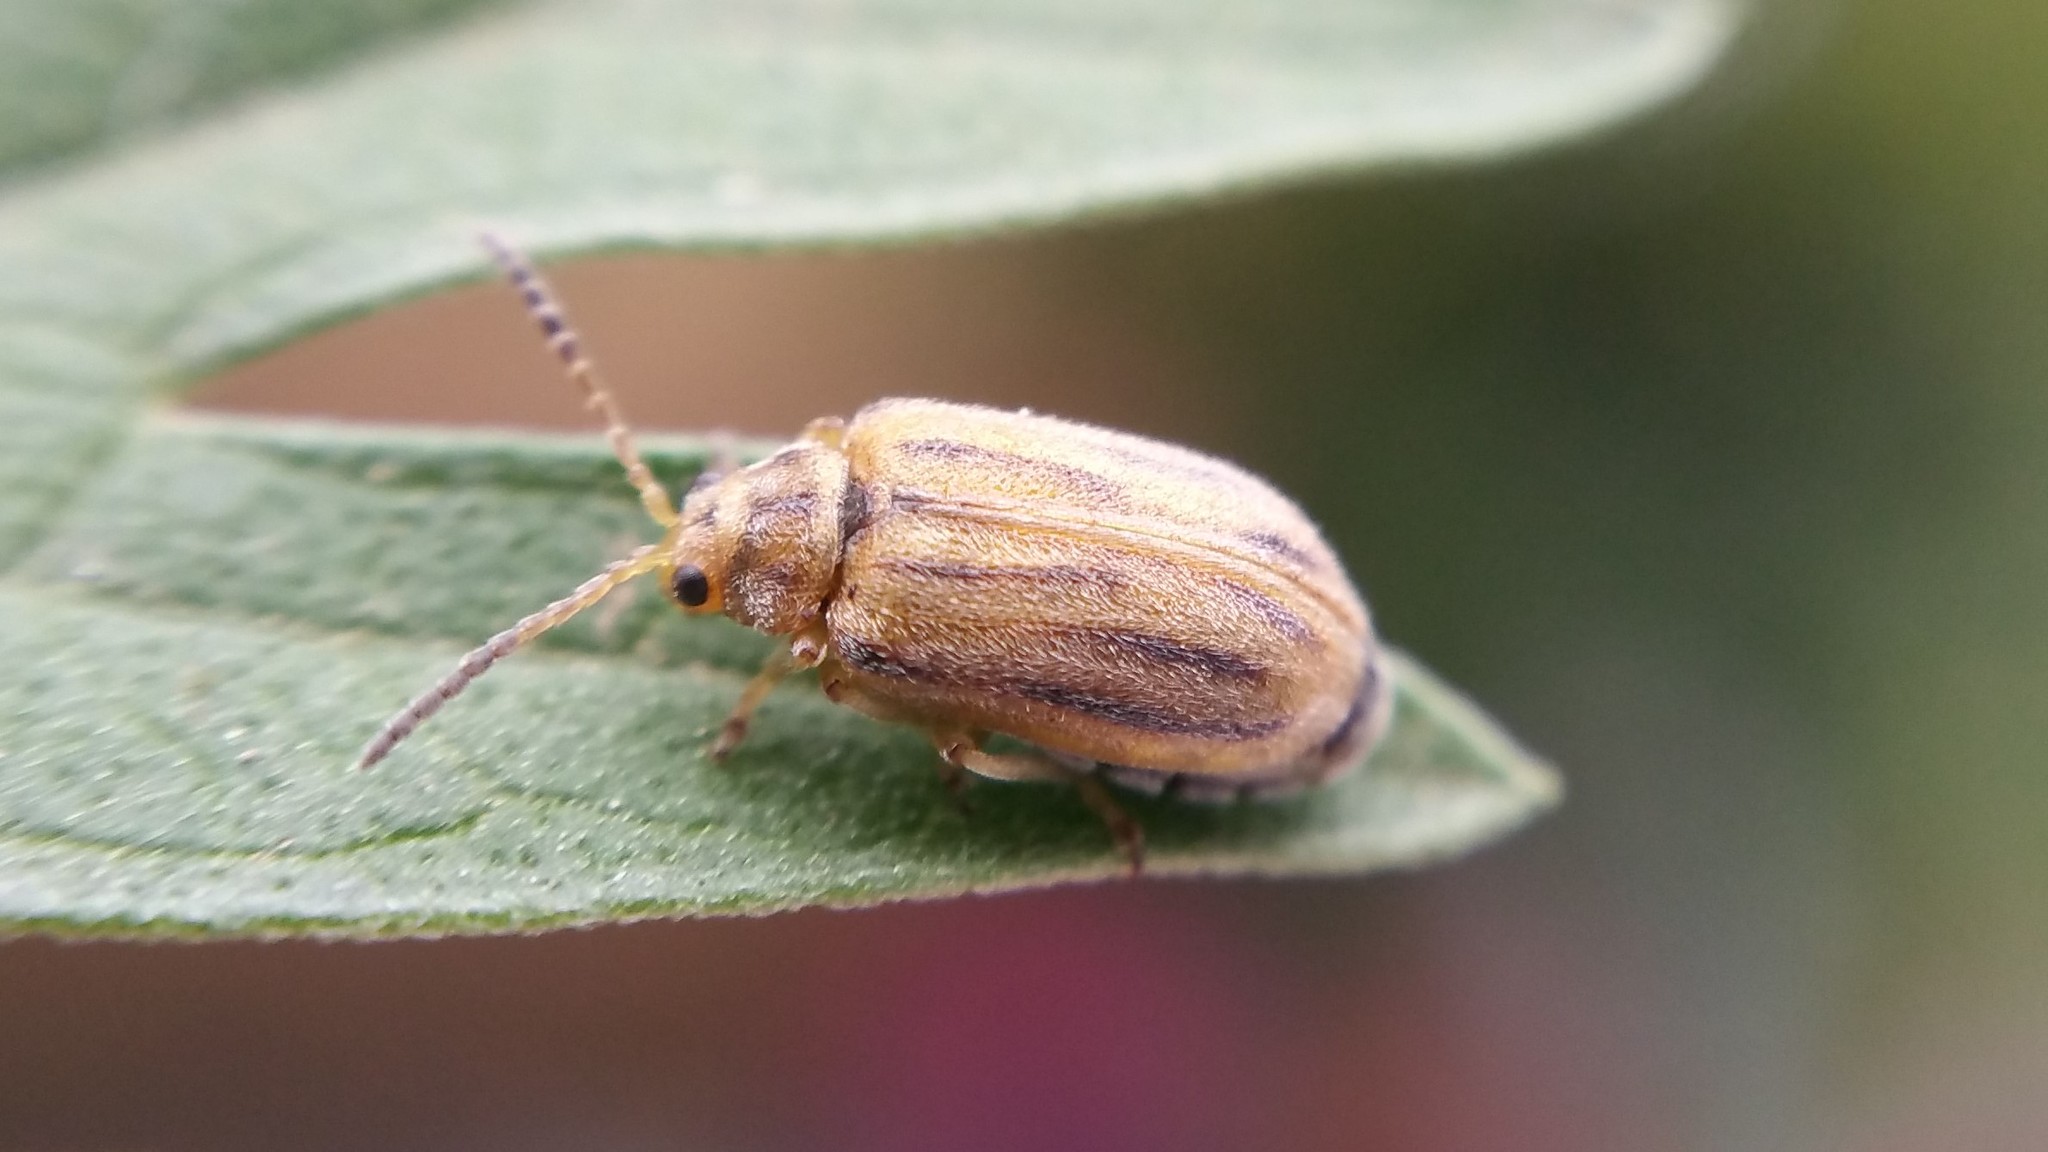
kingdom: Animalia
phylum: Arthropoda
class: Insecta
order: Coleoptera
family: Chrysomelidae
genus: Ophraella
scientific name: Ophraella communa
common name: Ragweed leaf beetle
